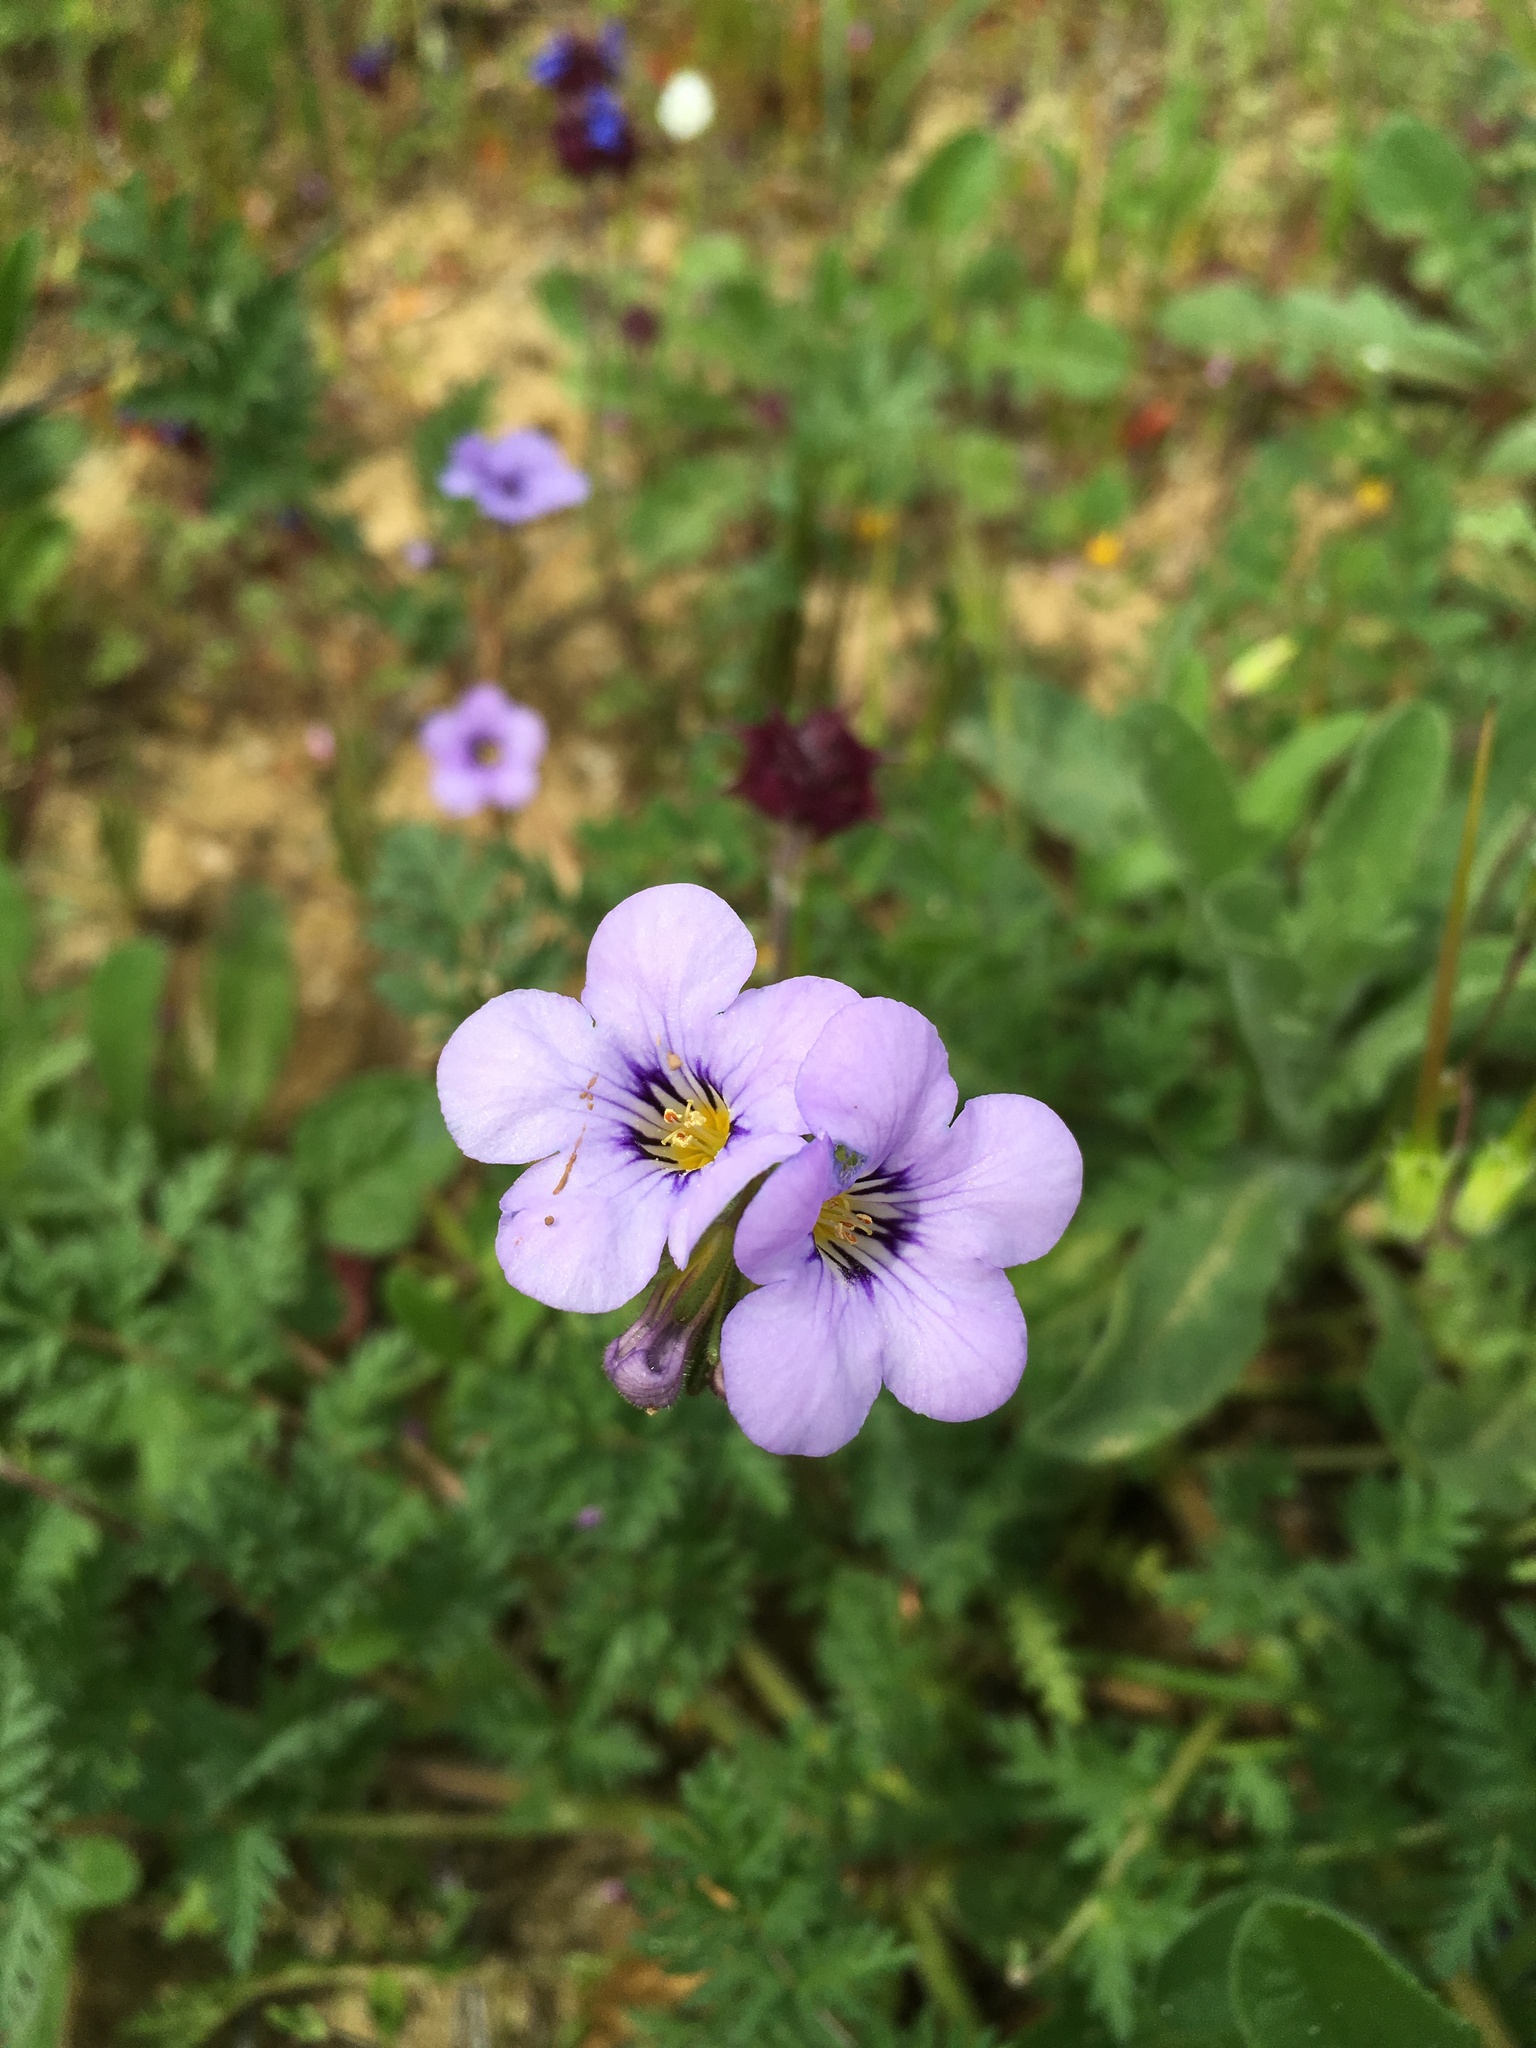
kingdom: Plantae
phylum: Tracheophyta
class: Magnoliopsida
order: Boraginales
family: Hydrophyllaceae
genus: Phacelia
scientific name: Phacelia fremontii
